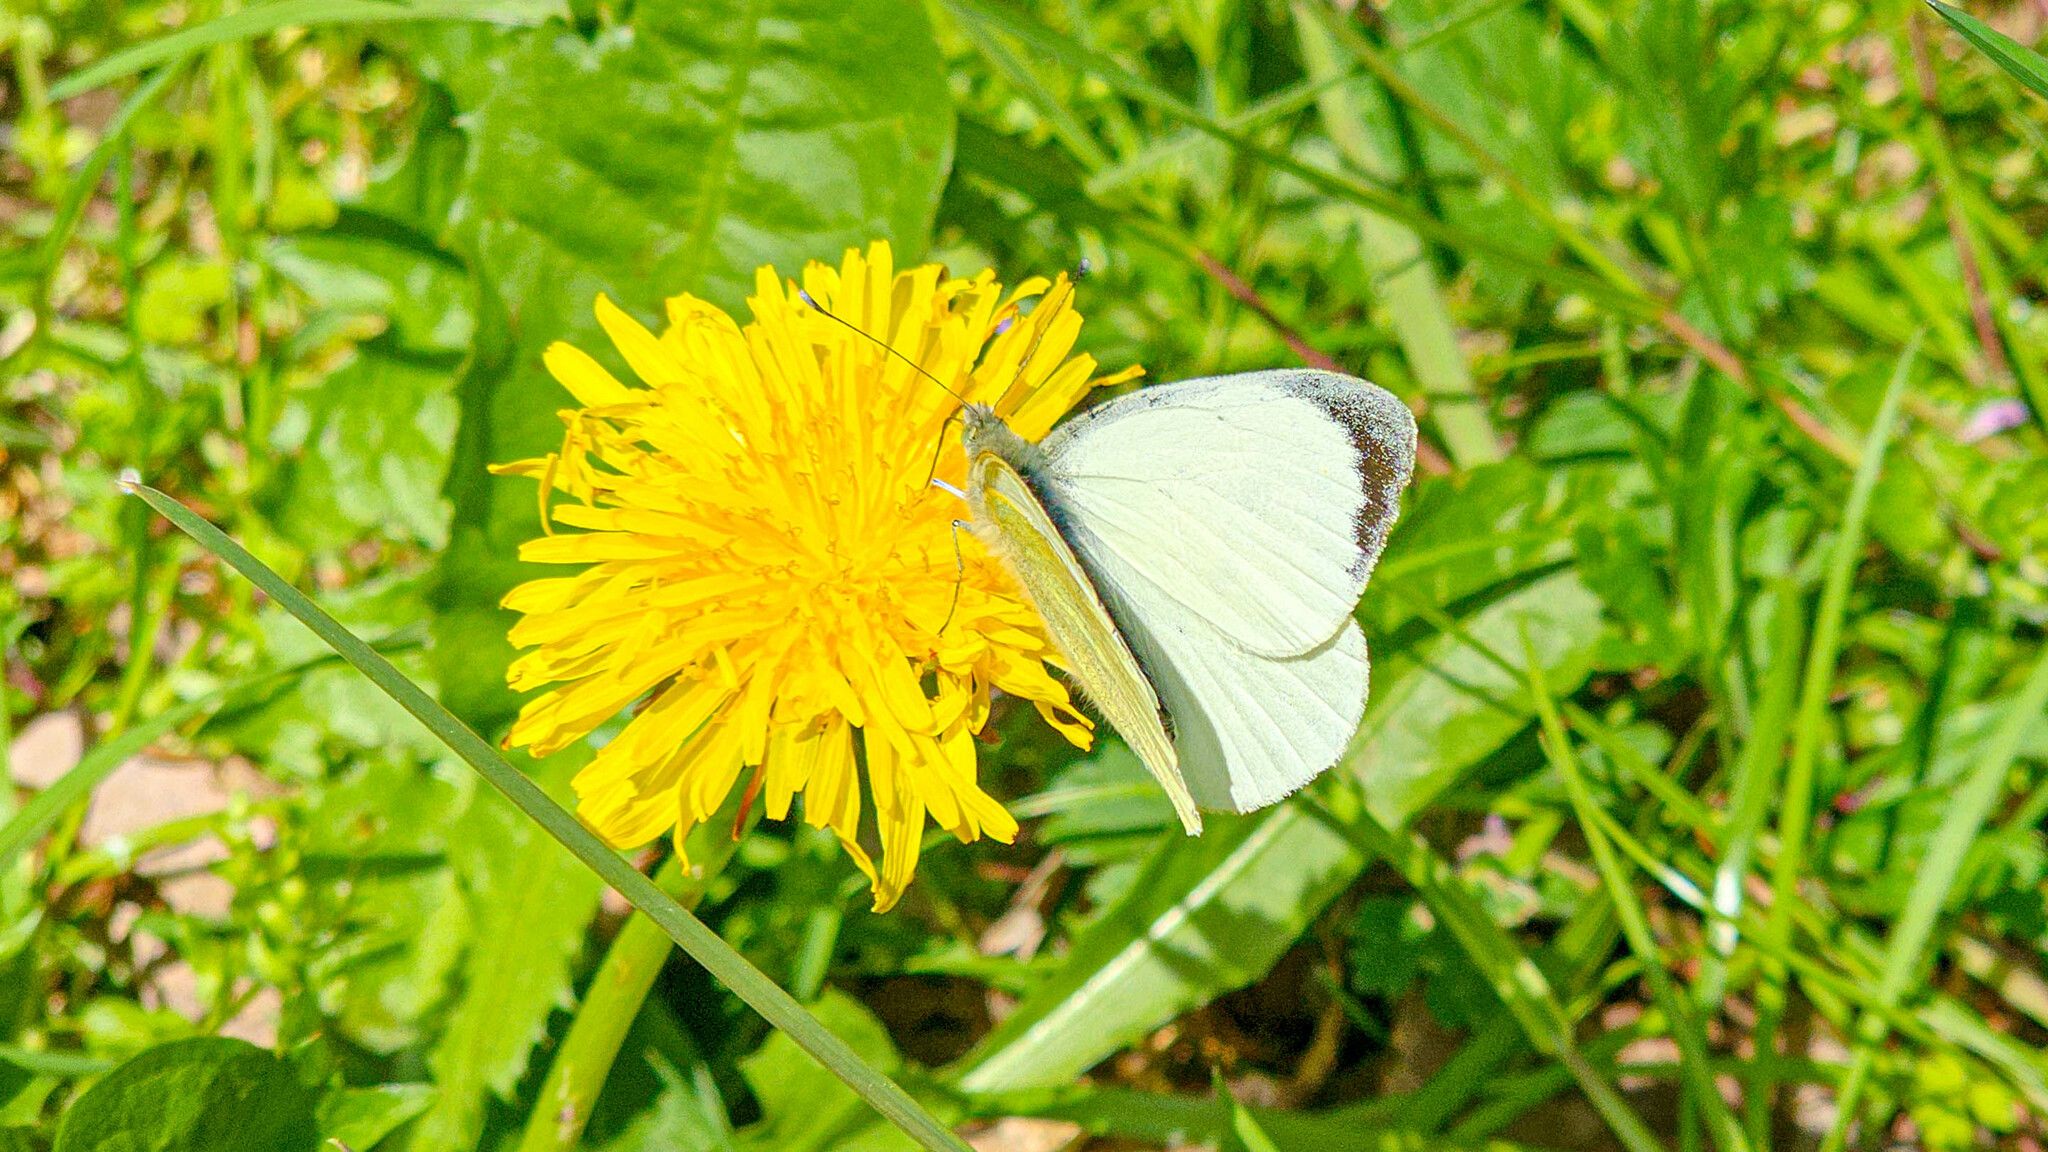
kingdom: Animalia
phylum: Arthropoda
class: Insecta
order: Lepidoptera
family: Pieridae
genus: Pieris
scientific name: Pieris brassicae
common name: Large white
